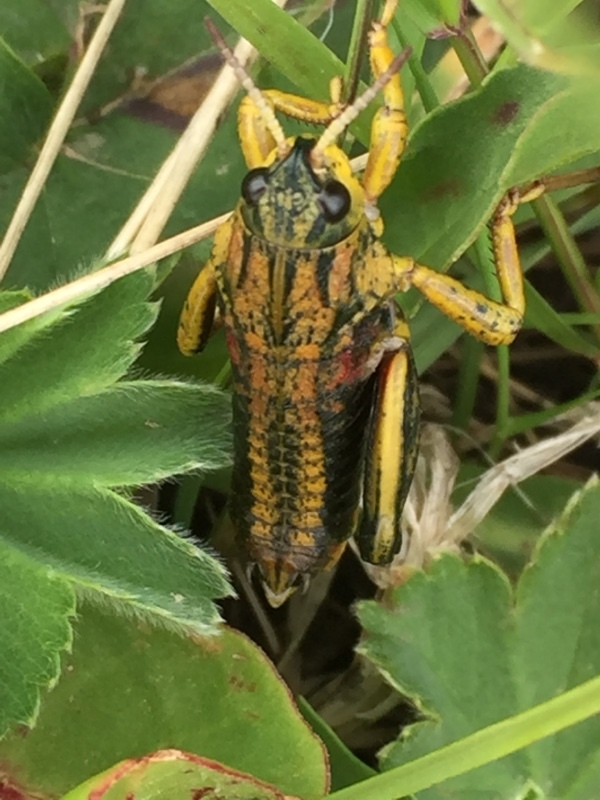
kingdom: Animalia
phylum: Arthropoda
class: Insecta
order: Orthoptera
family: Pamphagidae
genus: Nocaracris
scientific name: Nocaracris cyanipes
